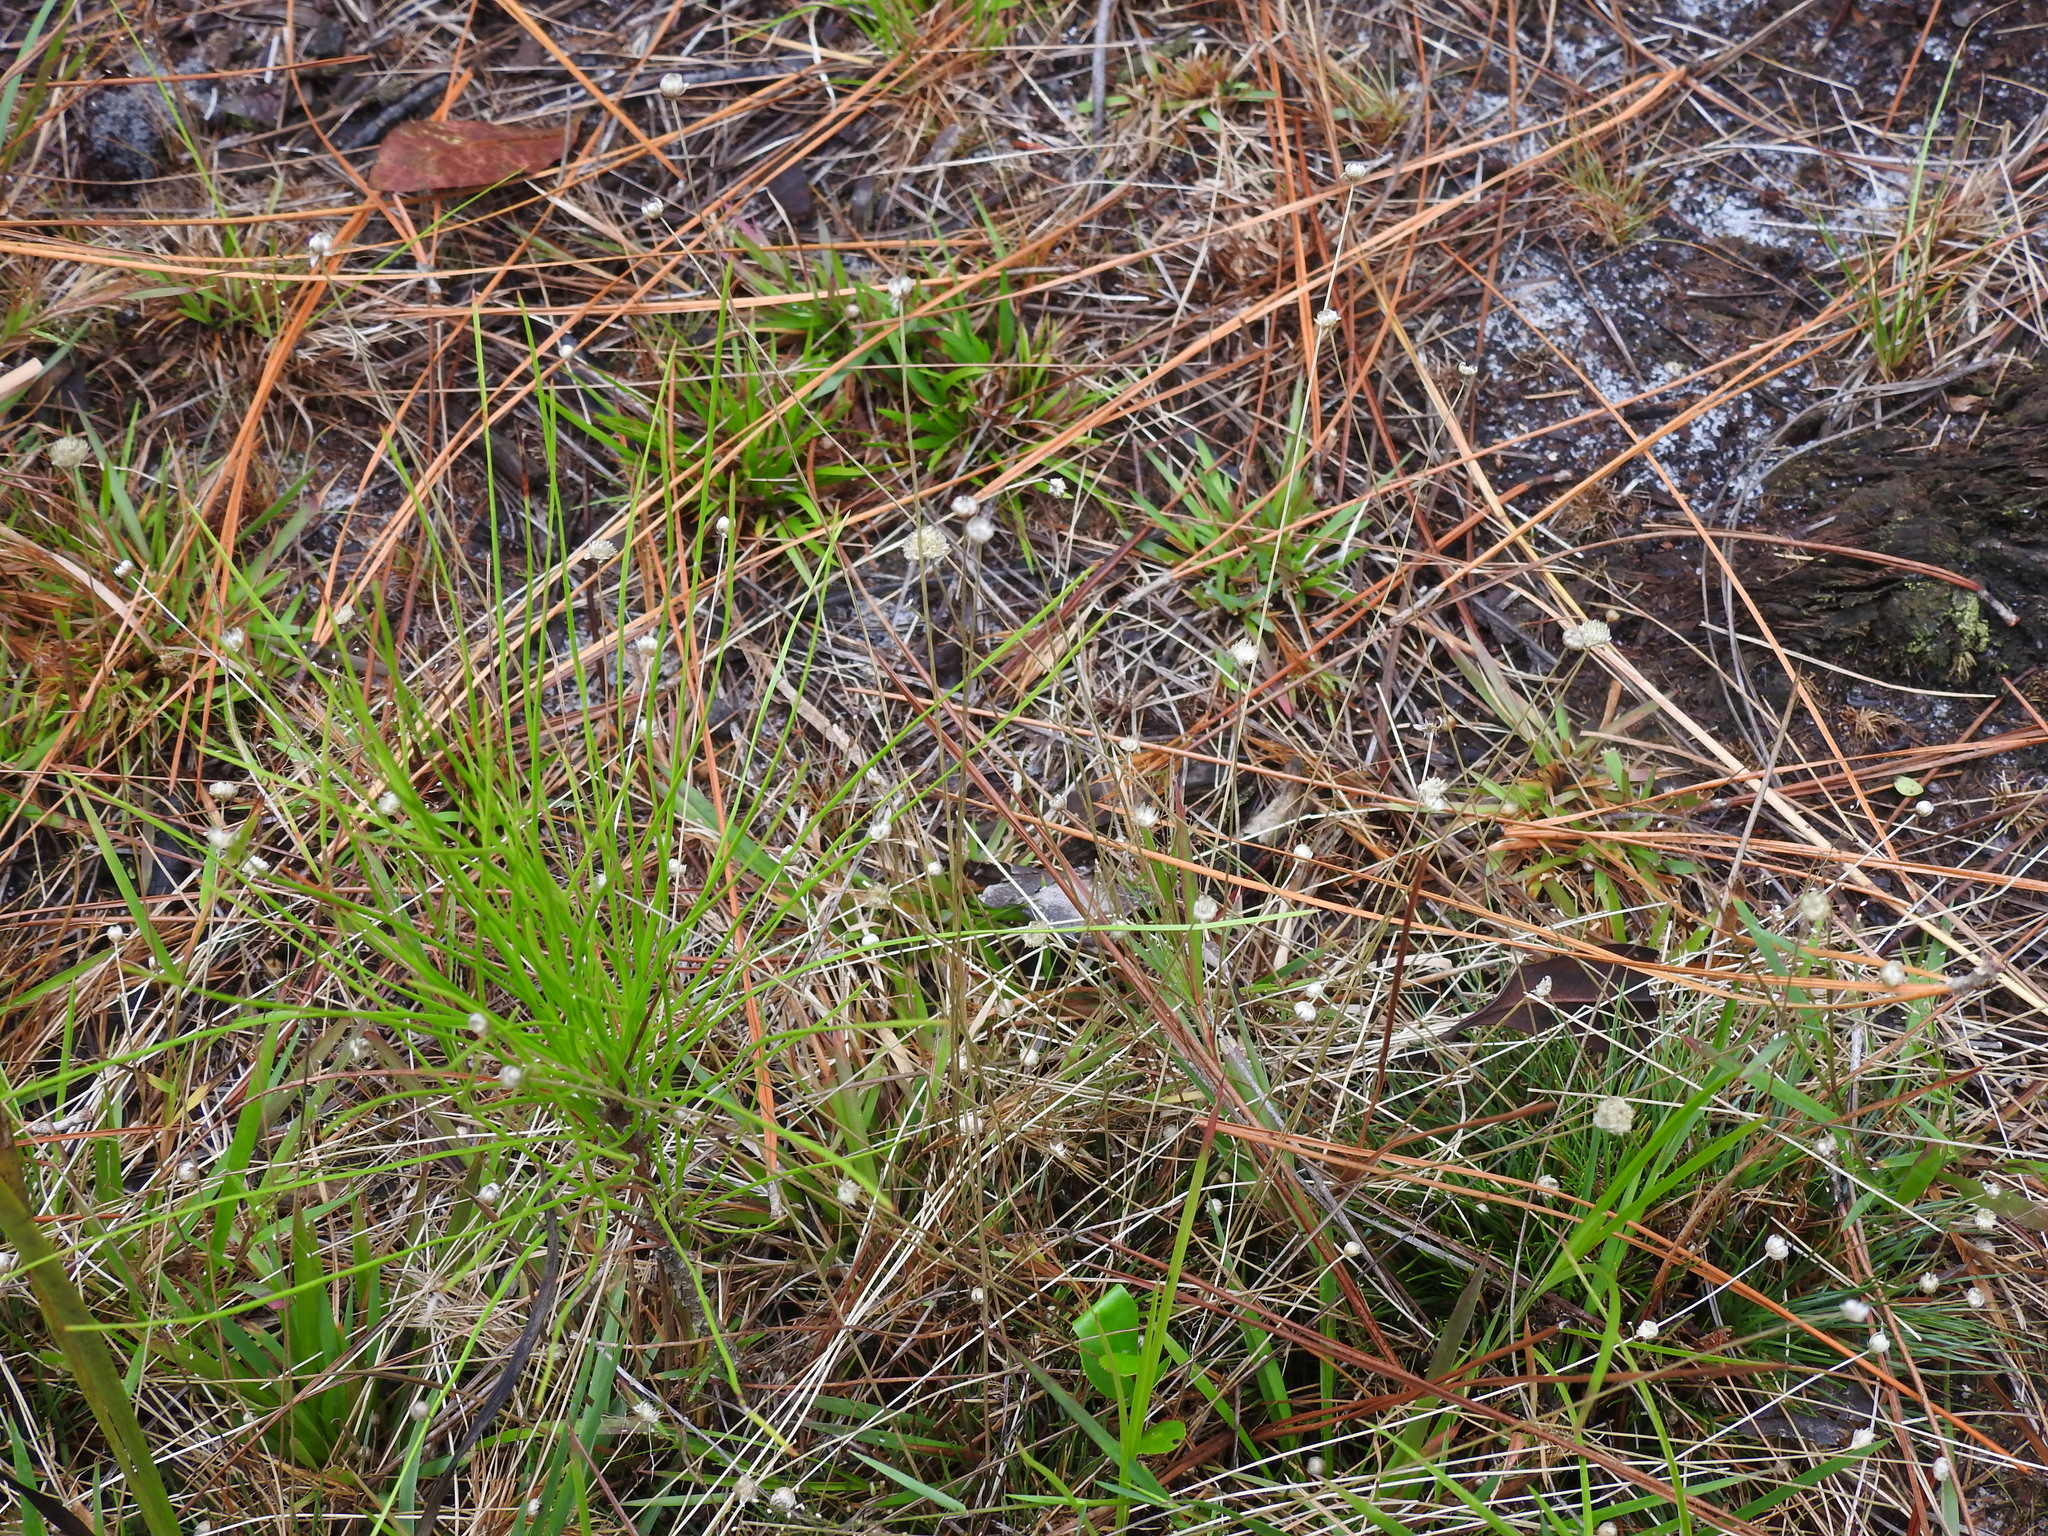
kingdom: Plantae
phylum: Tracheophyta
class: Liliopsida
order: Poales
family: Eriocaulaceae
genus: Syngonanthus
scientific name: Syngonanthus flavidulus
